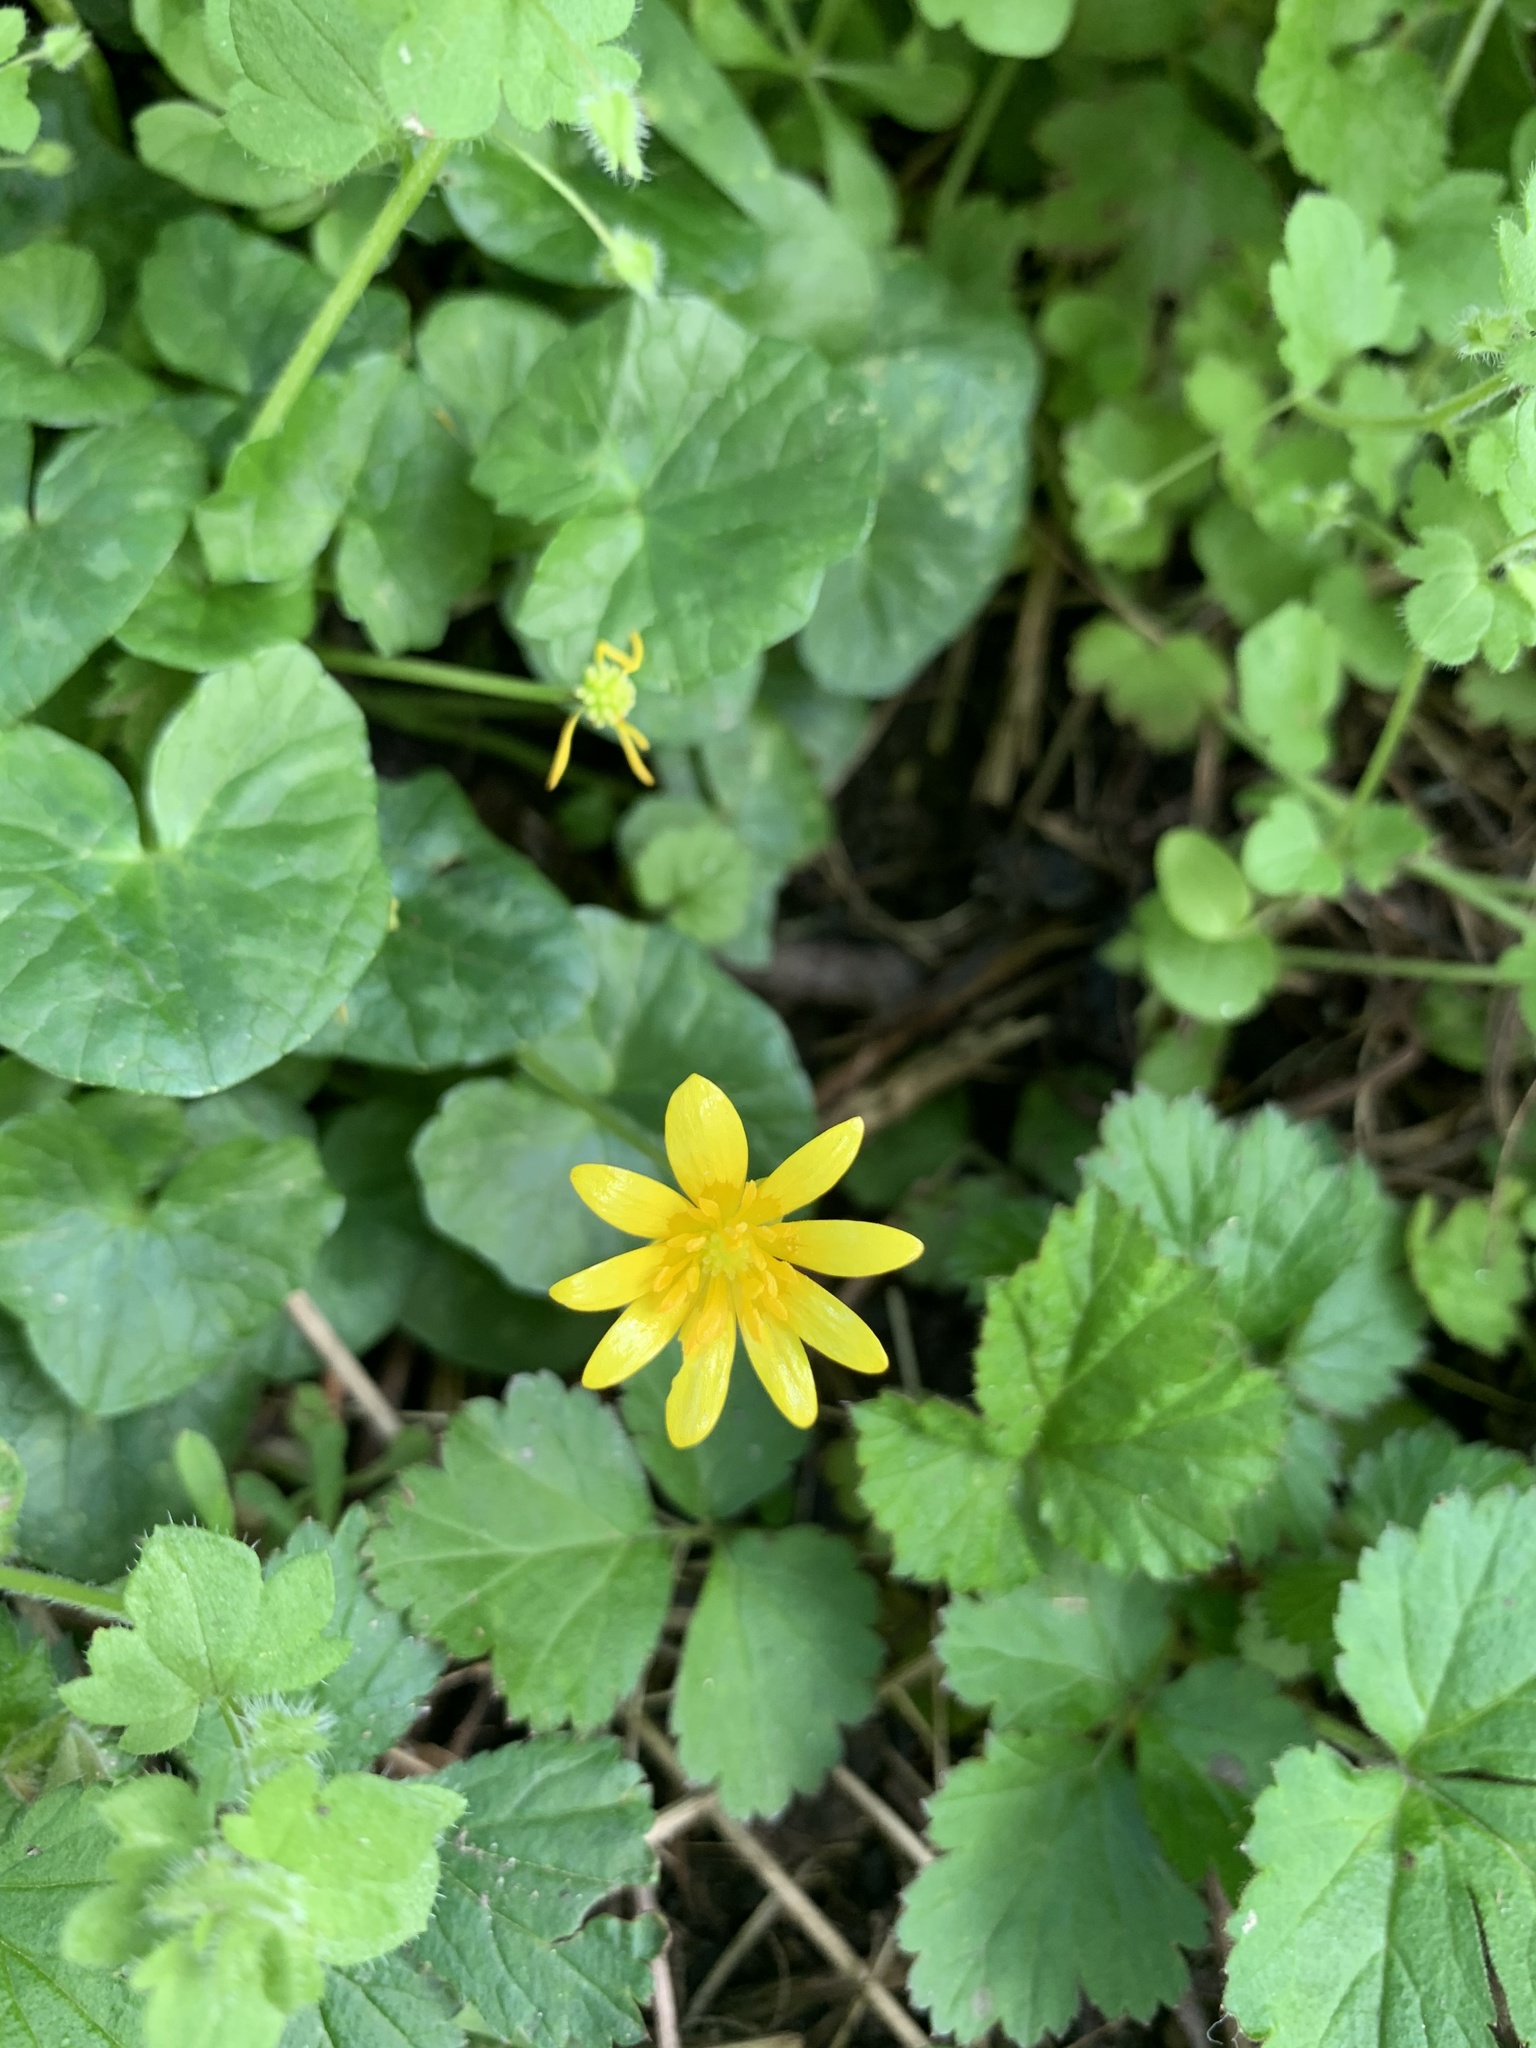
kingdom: Plantae
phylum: Tracheophyta
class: Magnoliopsida
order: Ranunculales
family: Ranunculaceae
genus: Ficaria
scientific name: Ficaria verna
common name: Lesser celandine
